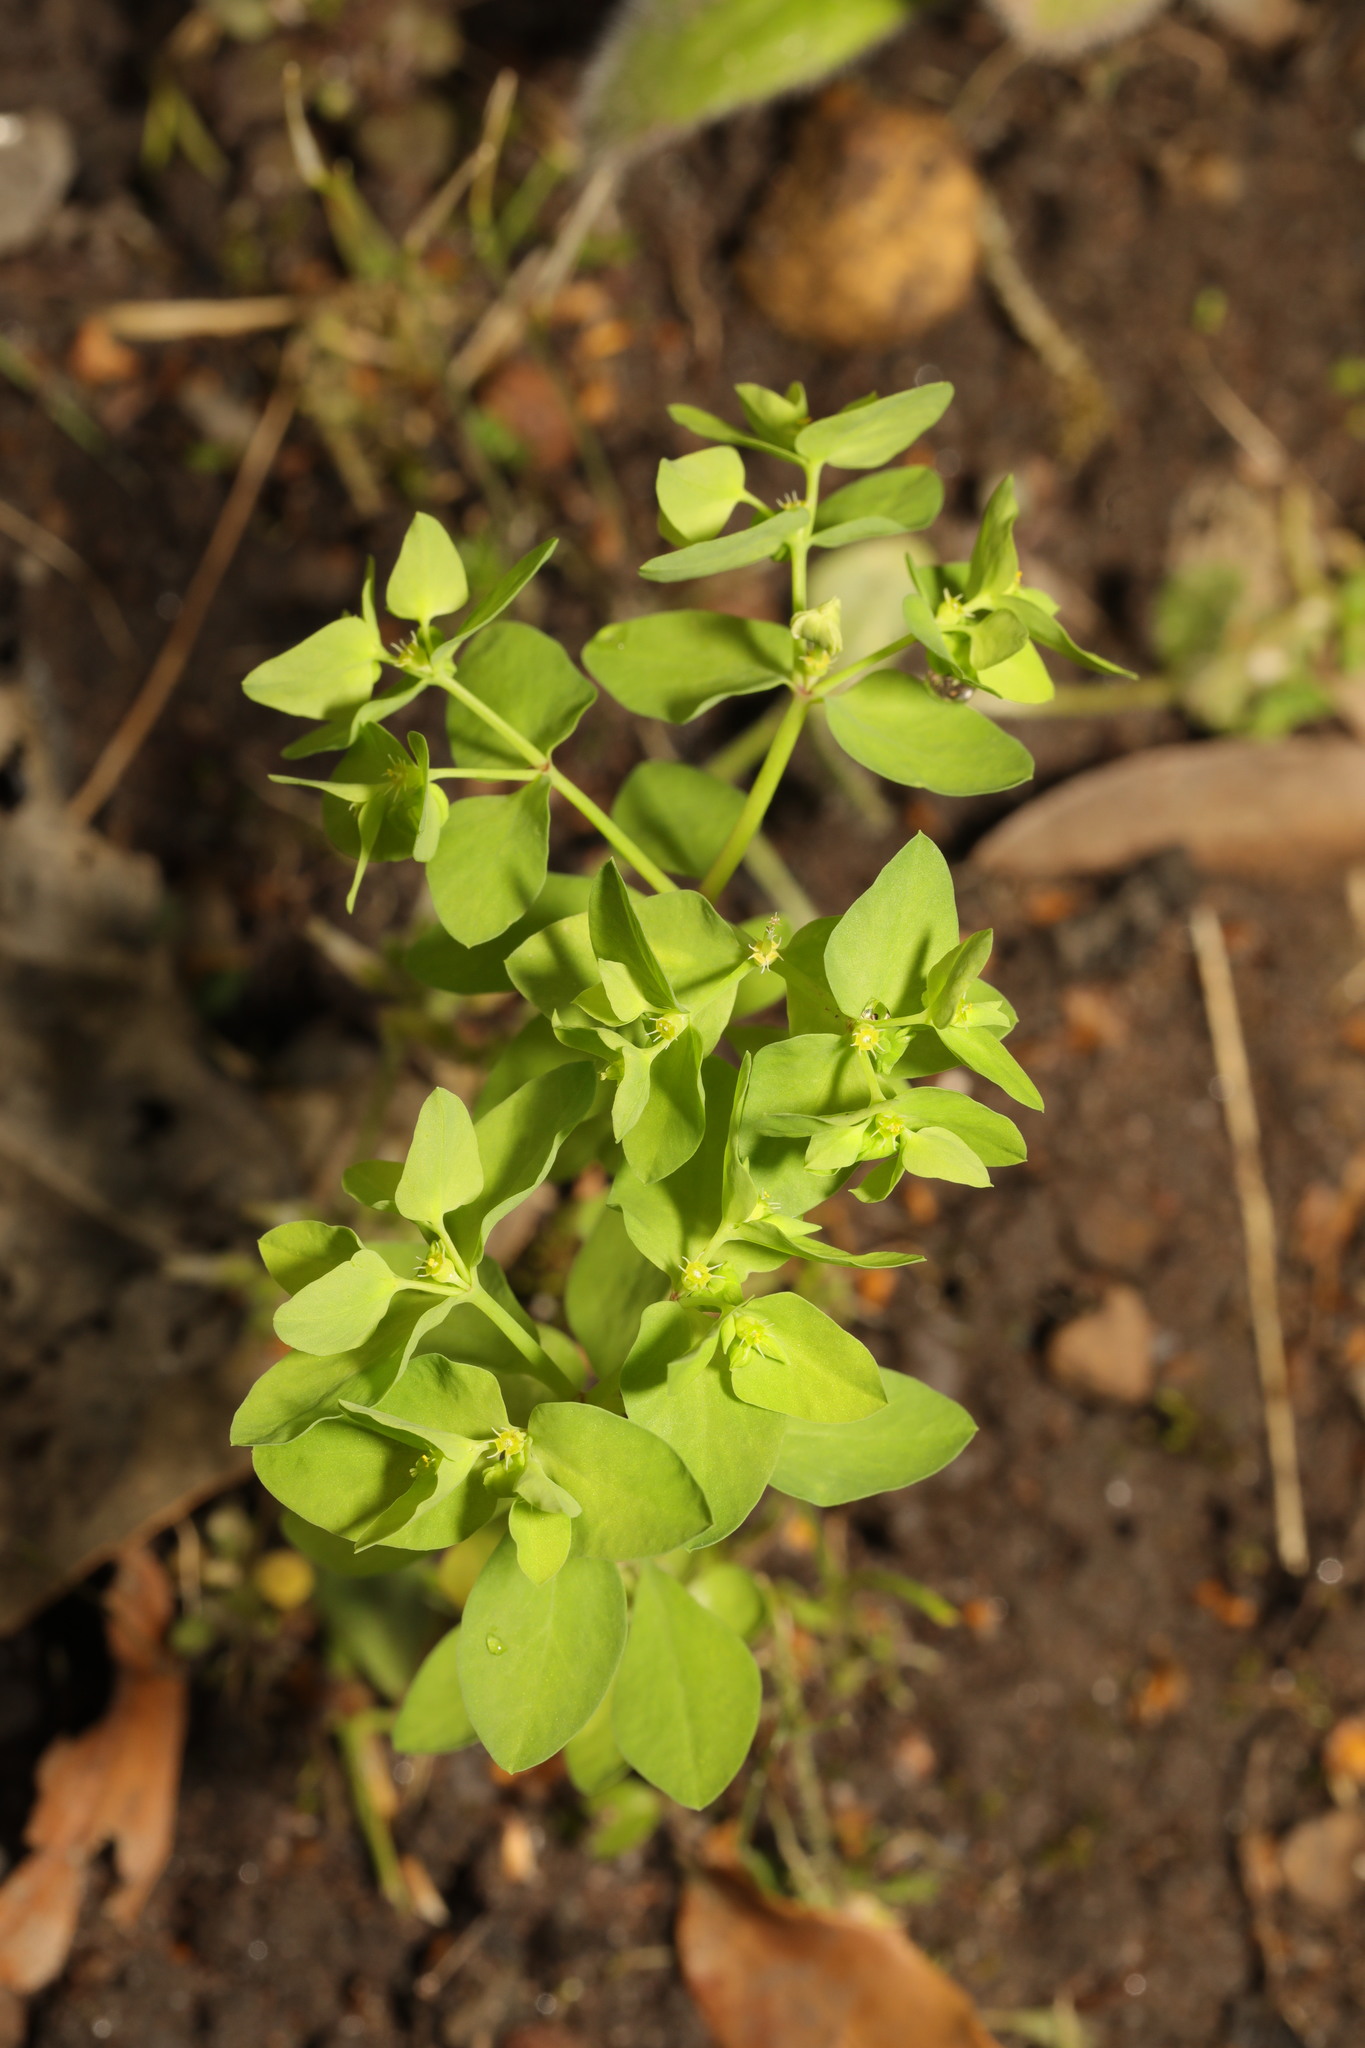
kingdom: Plantae
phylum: Tracheophyta
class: Magnoliopsida
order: Malpighiales
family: Euphorbiaceae
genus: Euphorbia
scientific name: Euphorbia peplus
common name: Petty spurge
